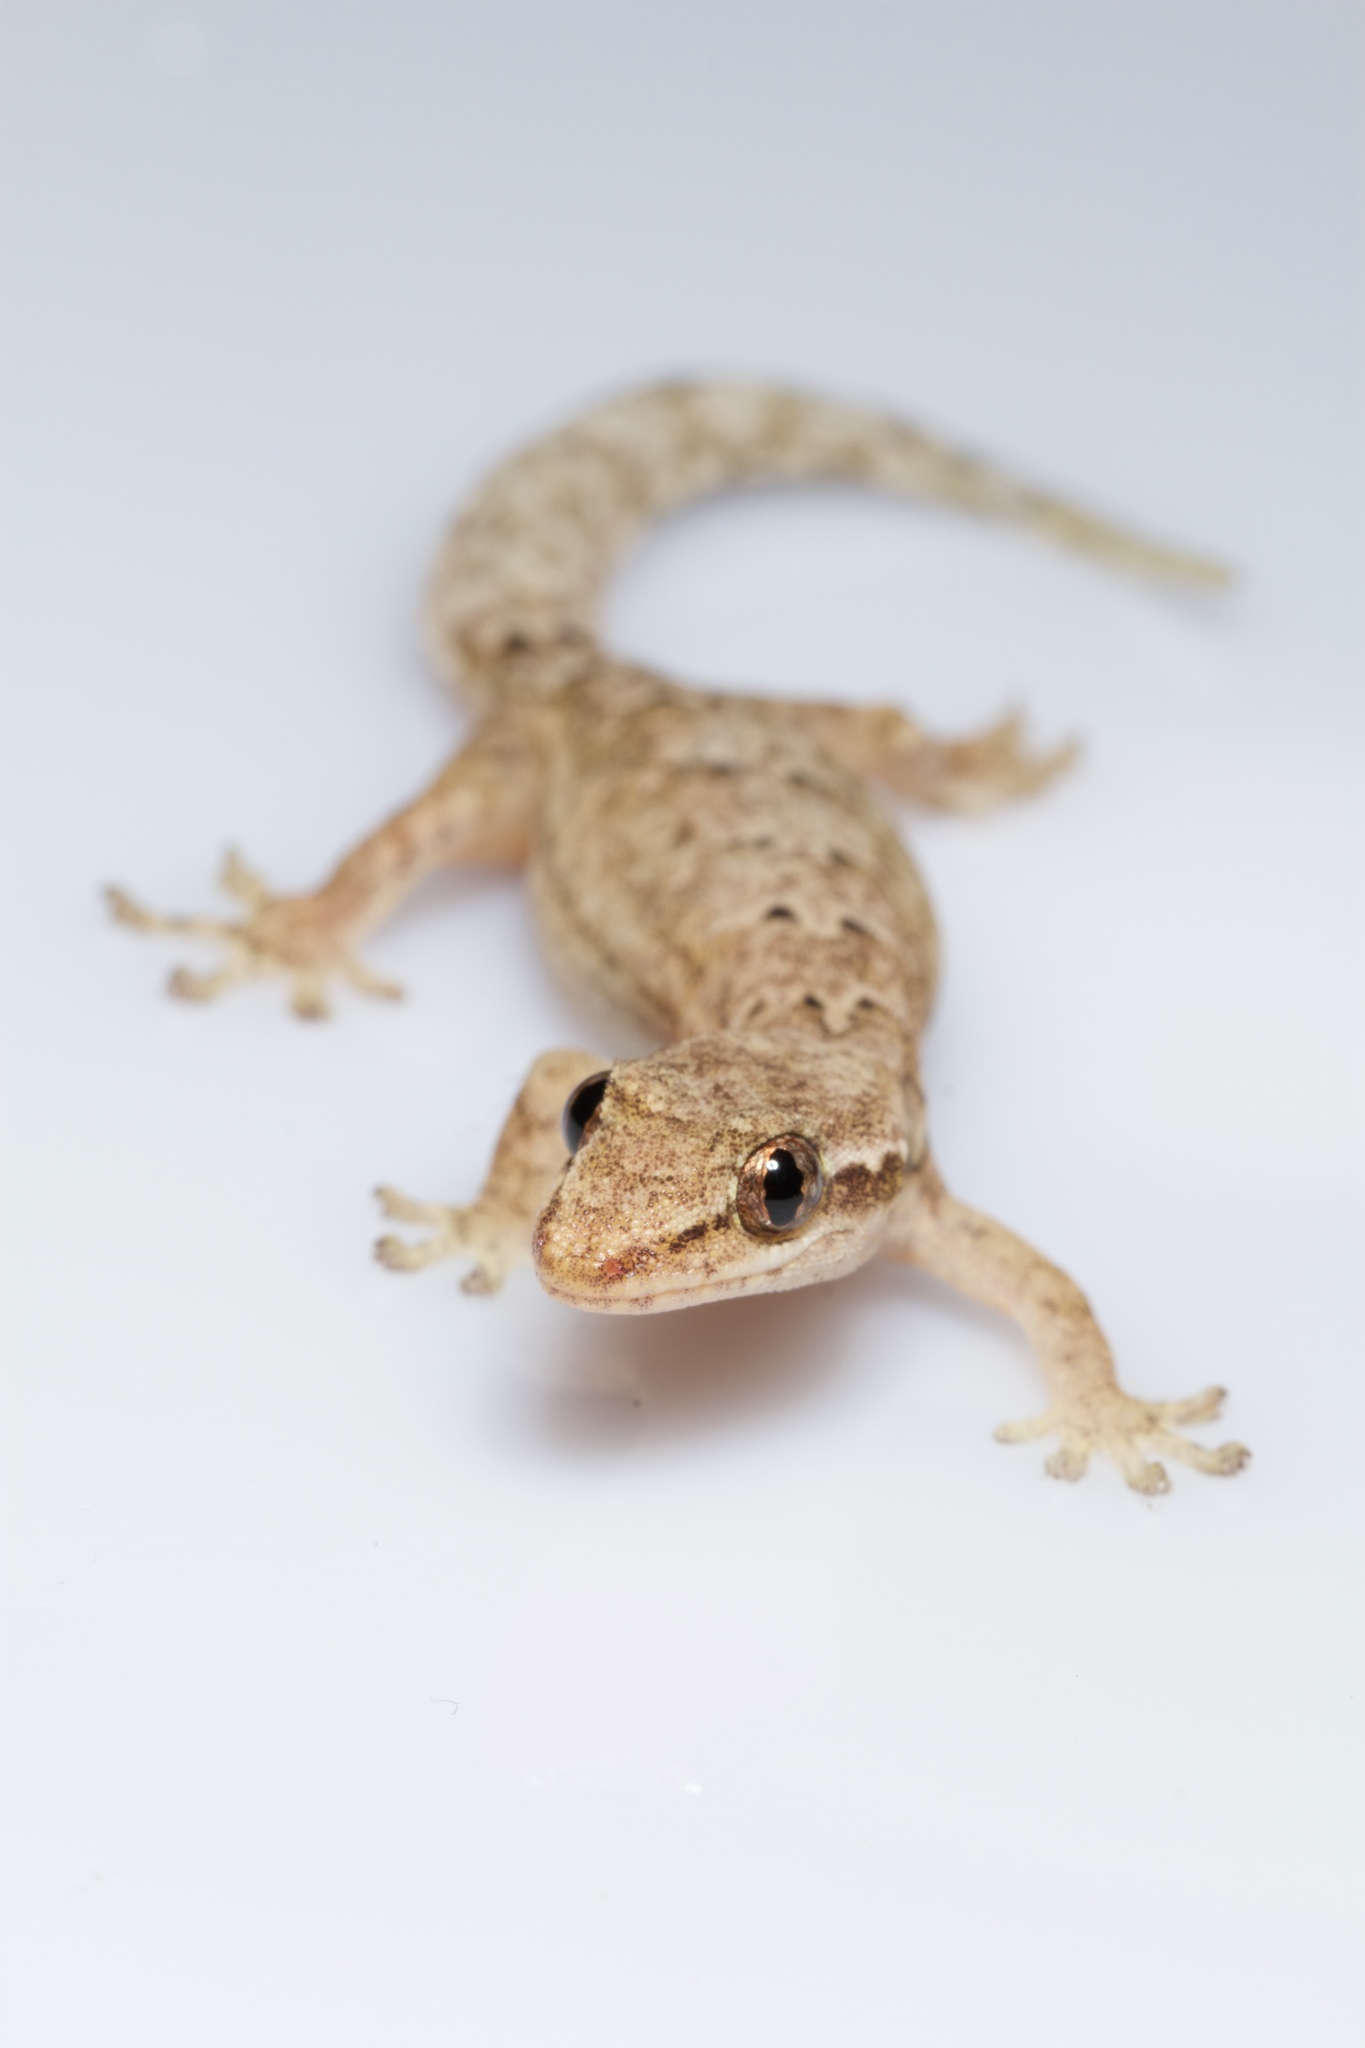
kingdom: Animalia
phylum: Chordata
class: Squamata
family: Gekkonidae
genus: Lepidodactylus
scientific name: Lepidodactylus lugubris
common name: Mourning gecko
